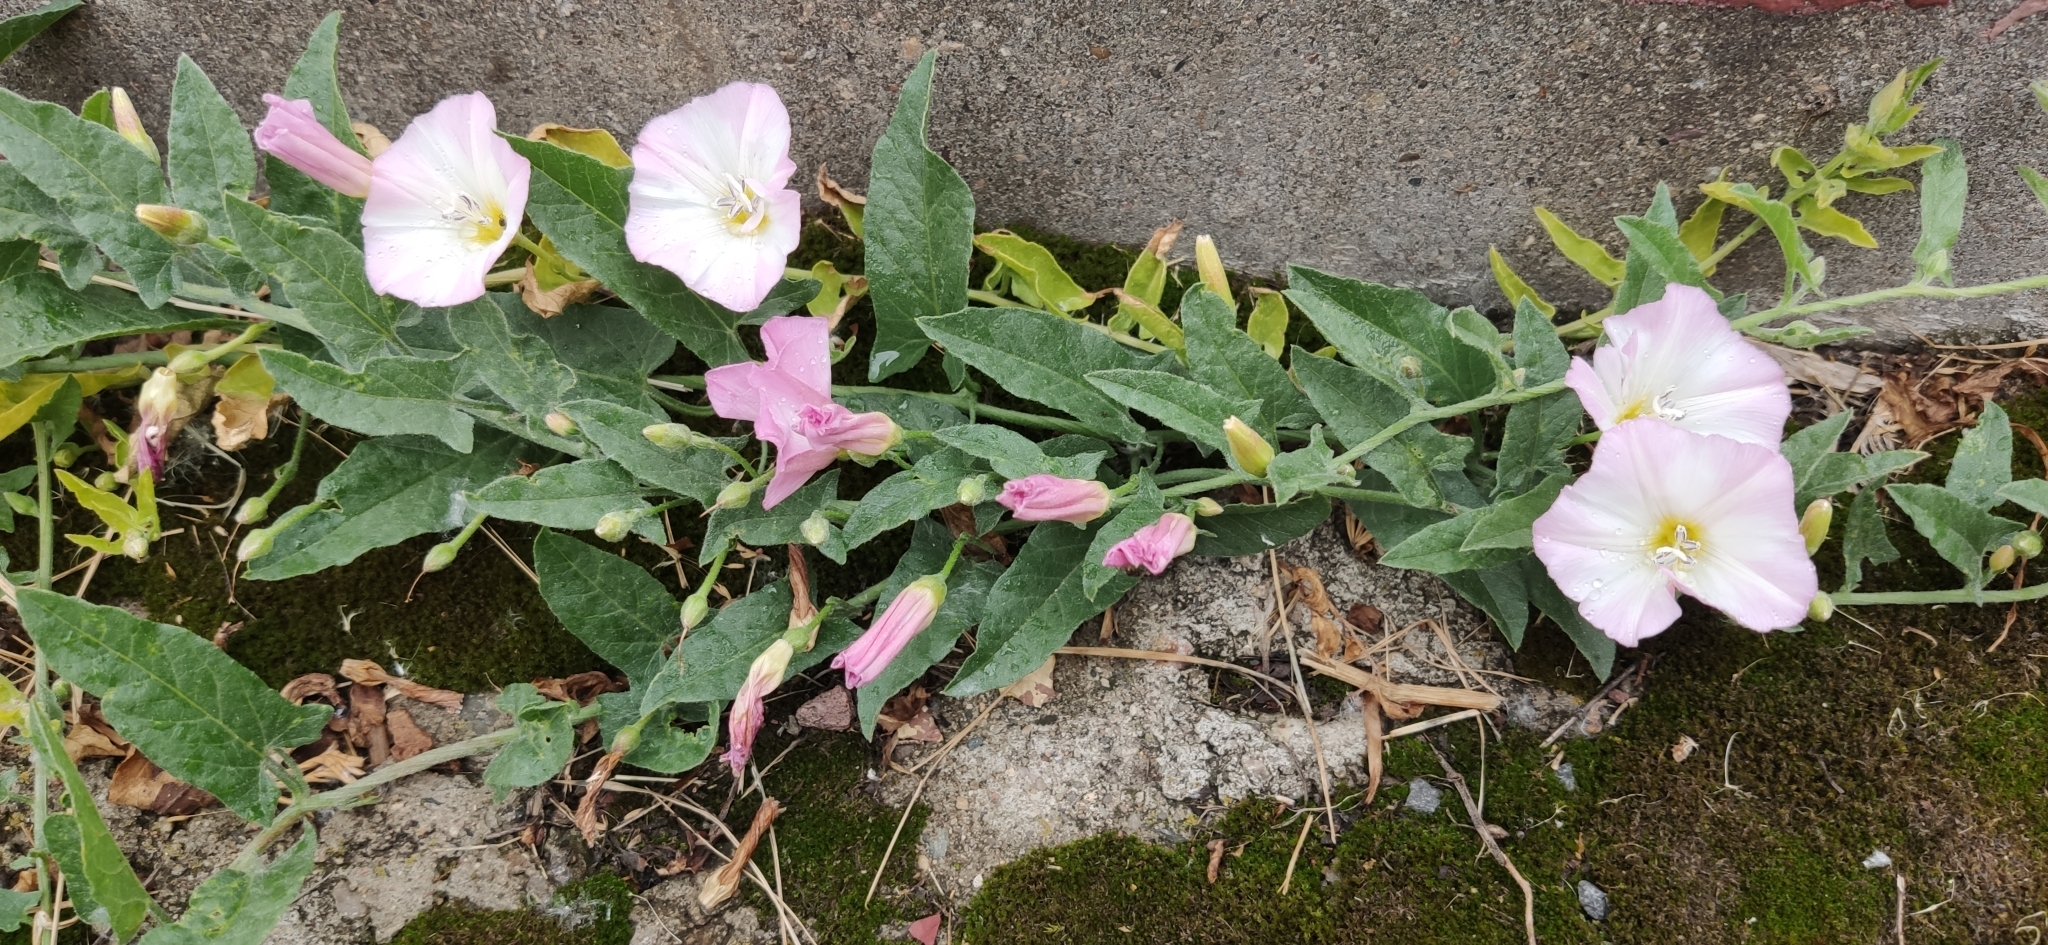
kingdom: Plantae
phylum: Tracheophyta
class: Magnoliopsida
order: Solanales
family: Convolvulaceae
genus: Convolvulus
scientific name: Convolvulus arvensis
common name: Field bindweed
